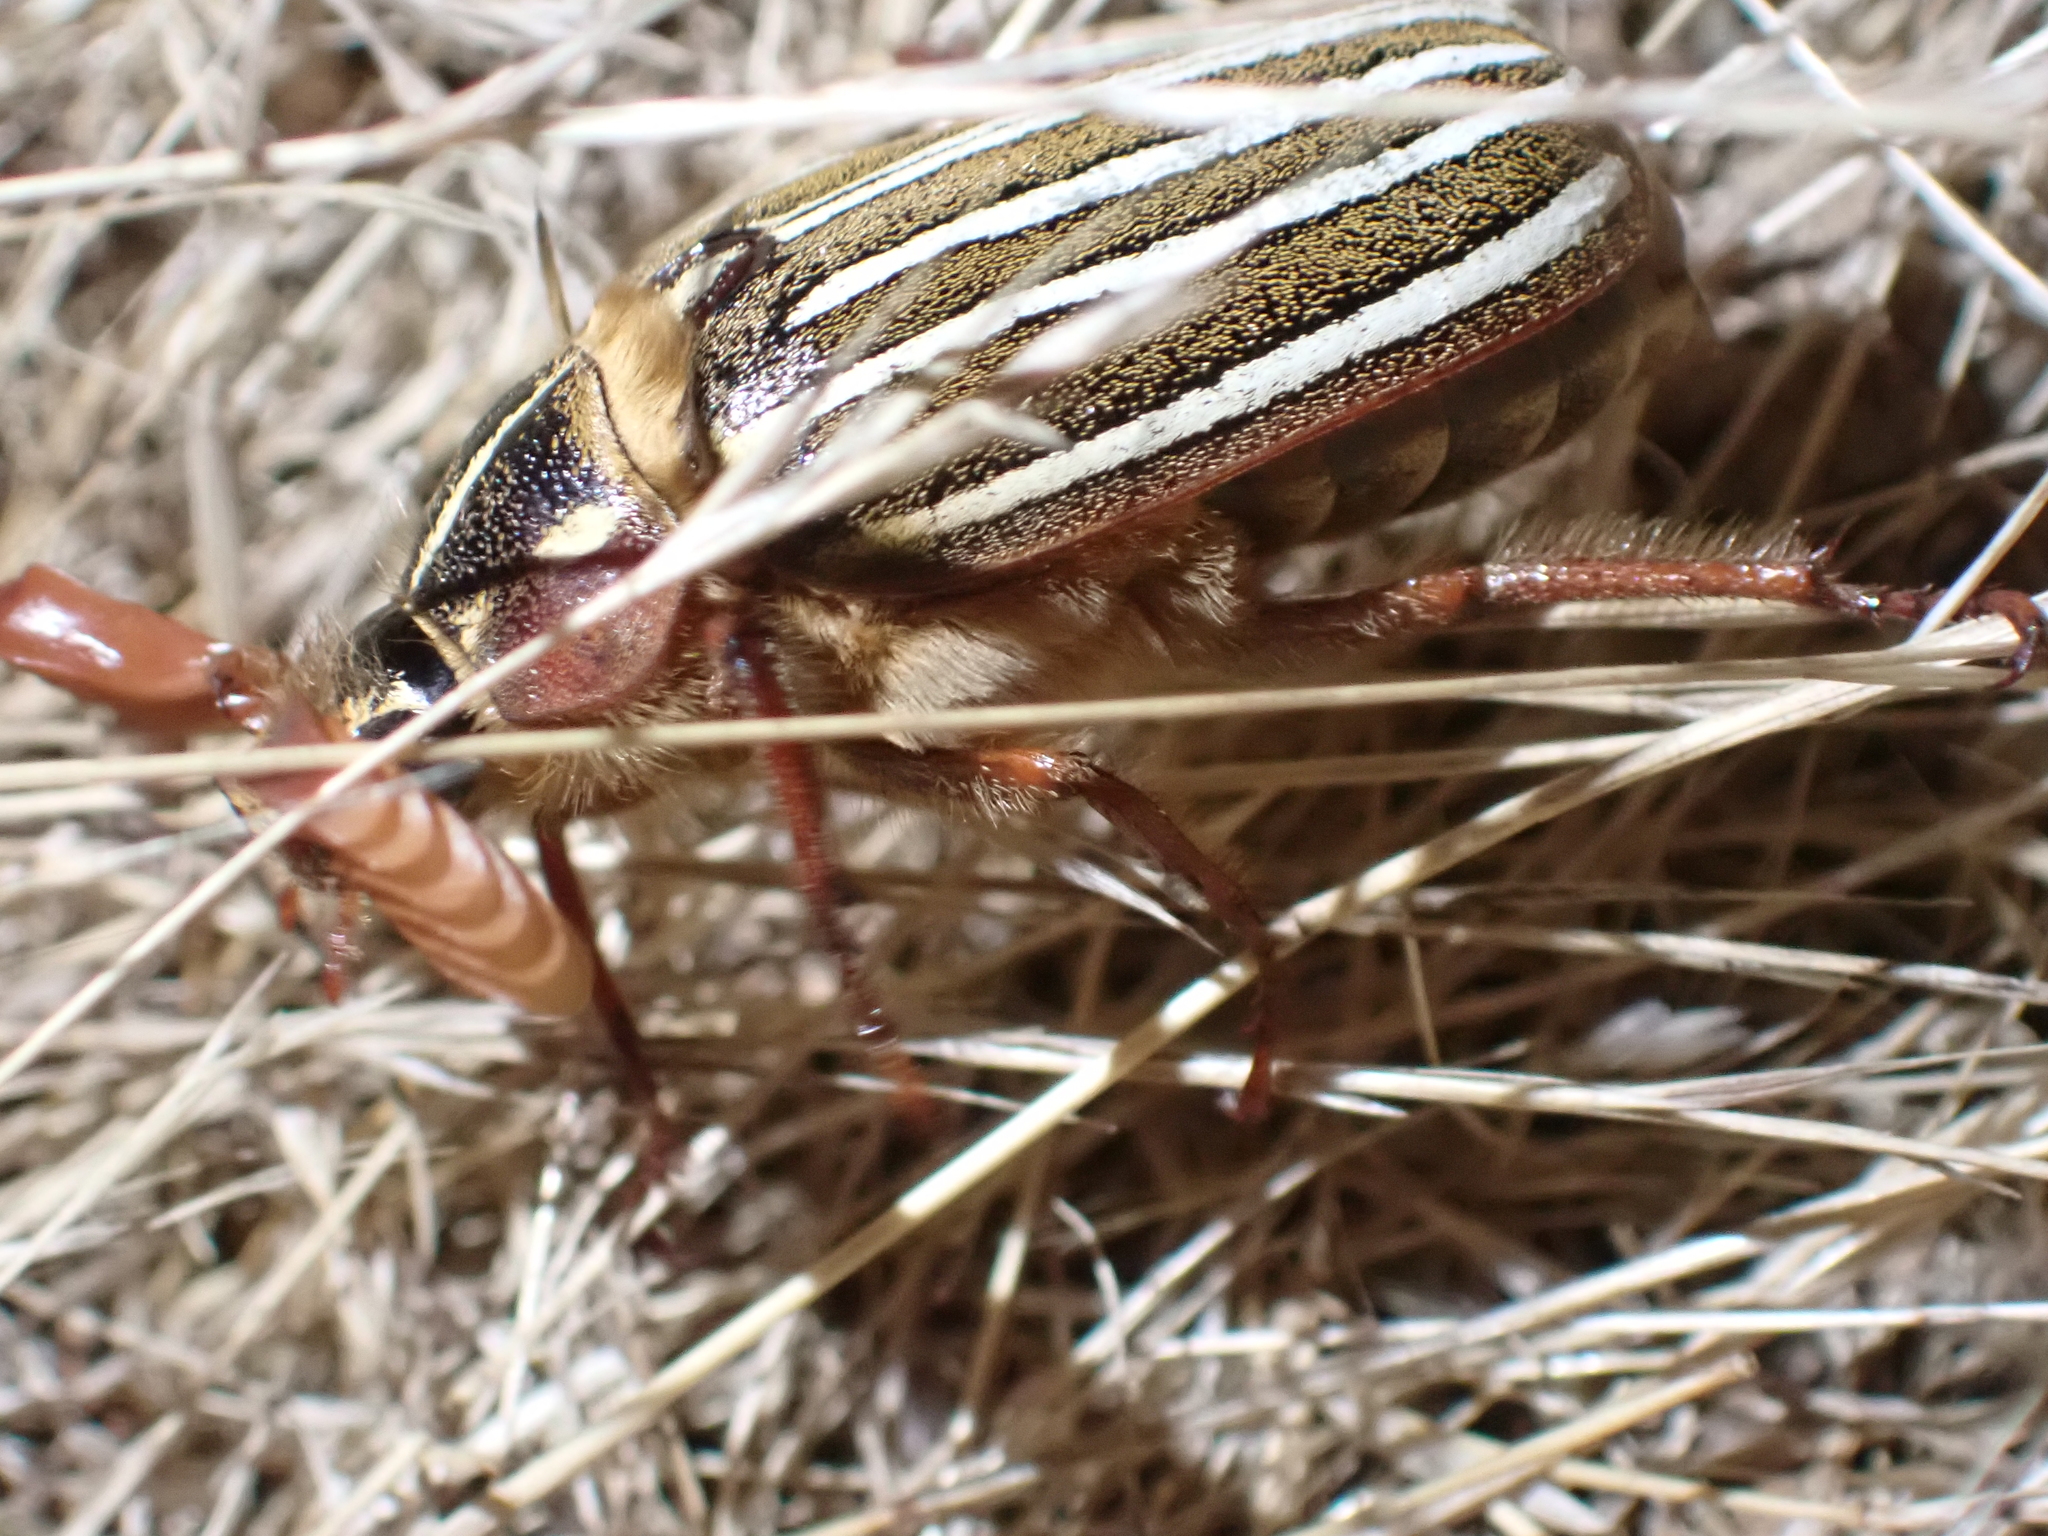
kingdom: Animalia
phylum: Arthropoda
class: Insecta
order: Coleoptera
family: Scarabaeidae
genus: Polyphylla
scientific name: Polyphylla crinita
